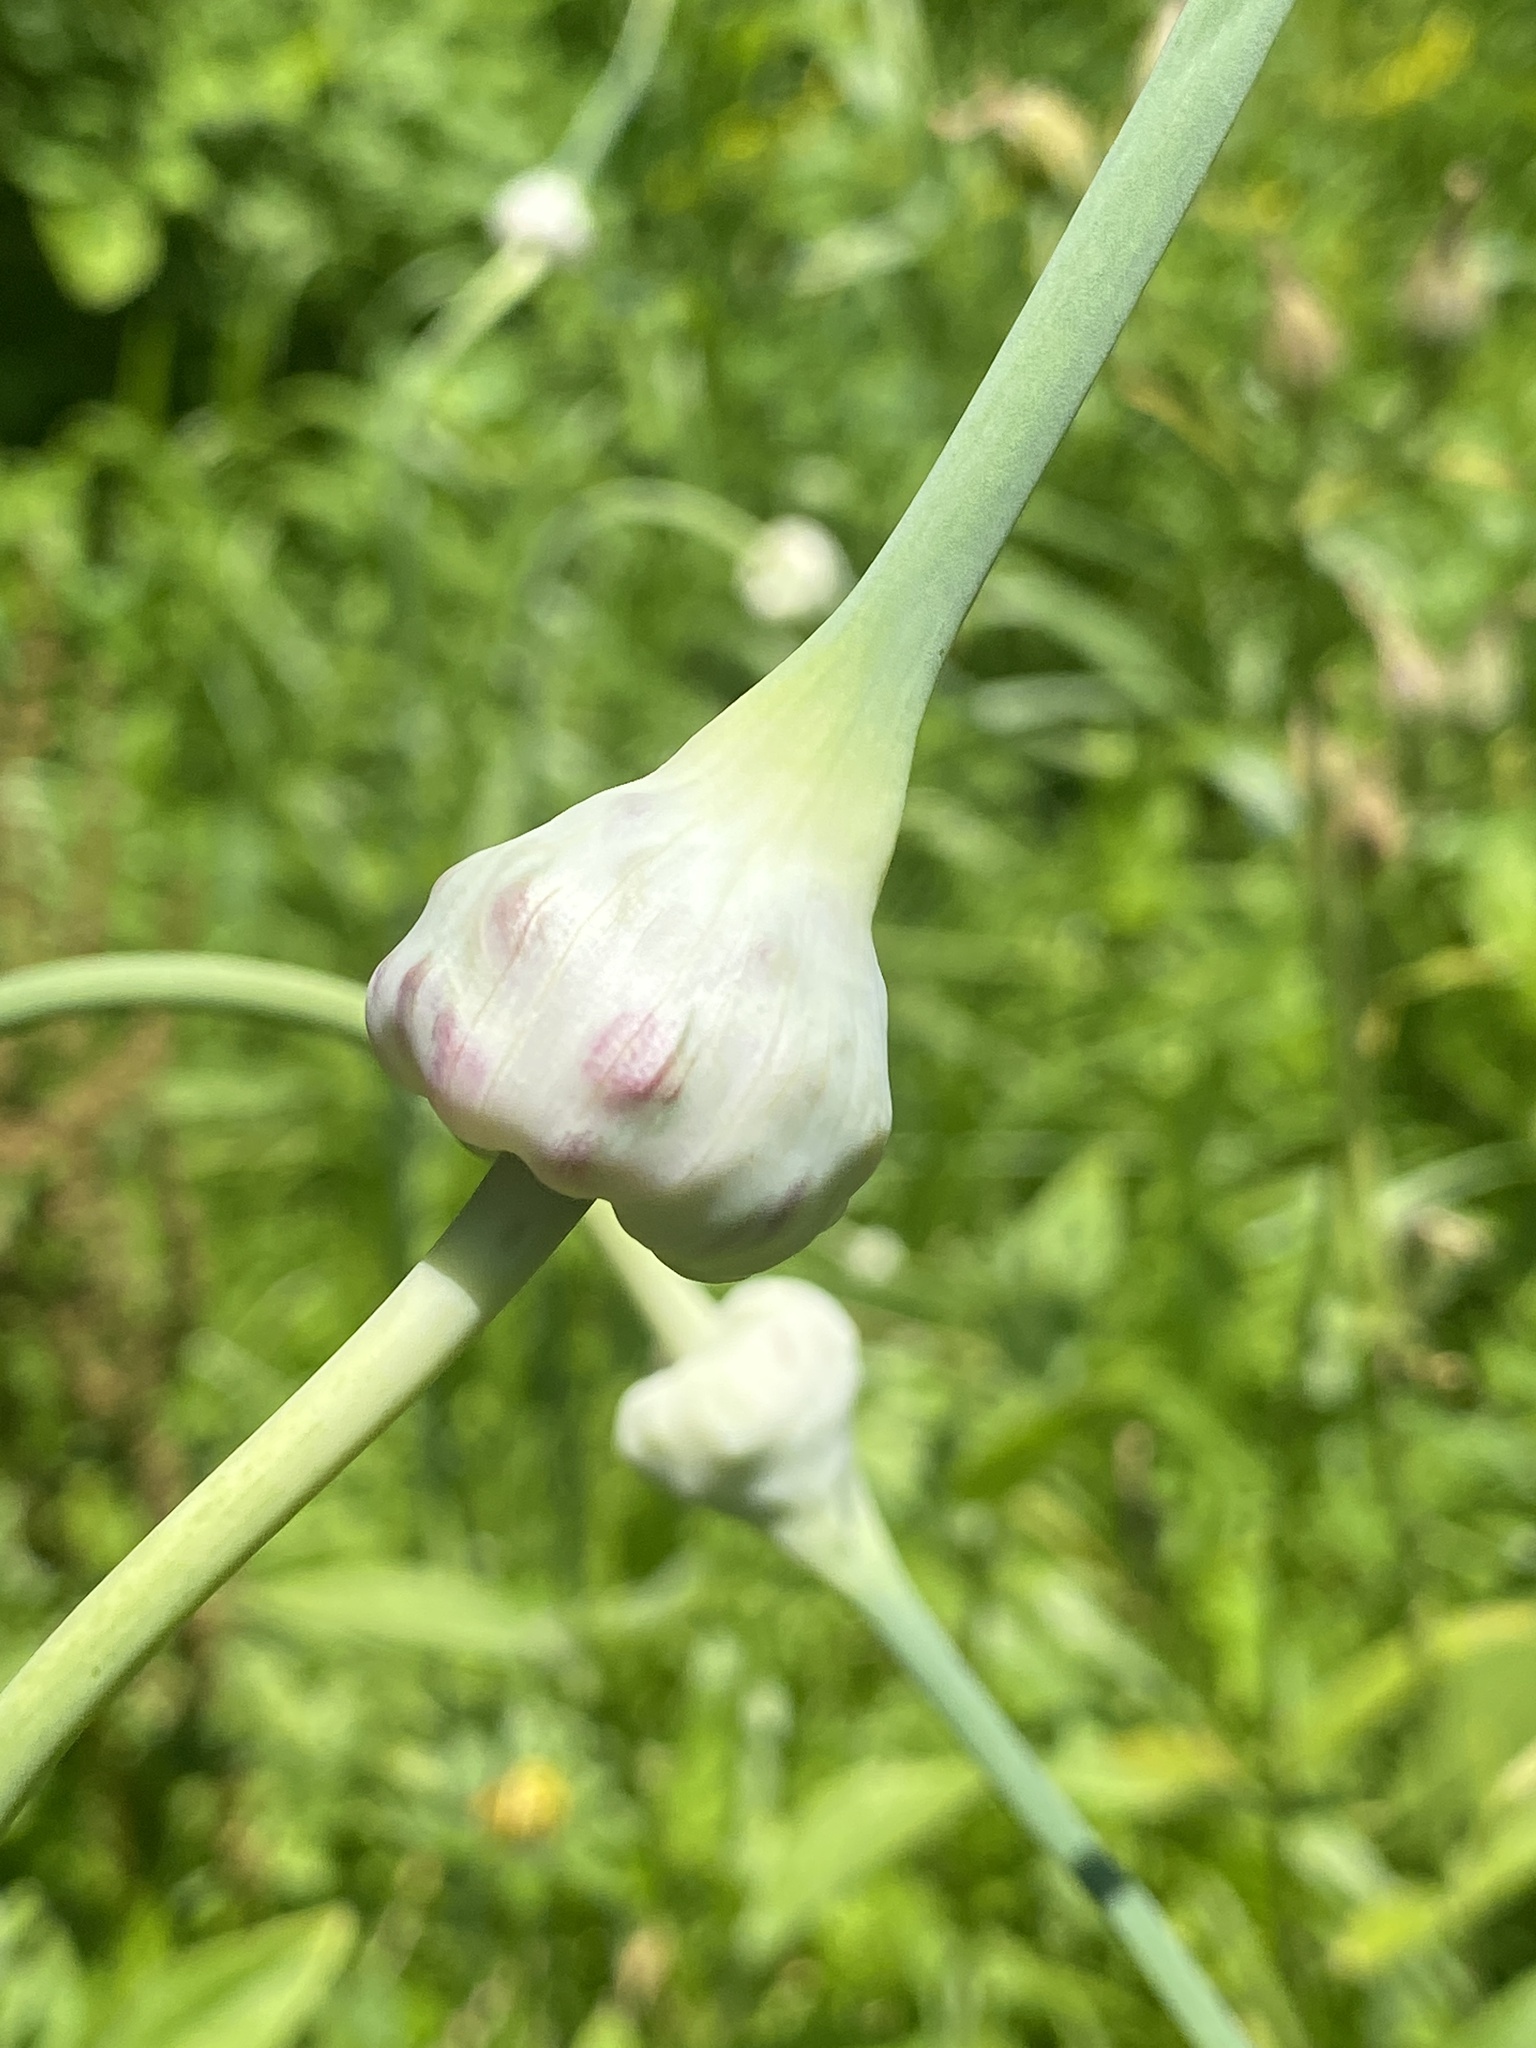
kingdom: Plantae
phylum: Tracheophyta
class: Liliopsida
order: Asparagales
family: Amaryllidaceae
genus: Allium
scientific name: Allium sativum
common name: Garlic
